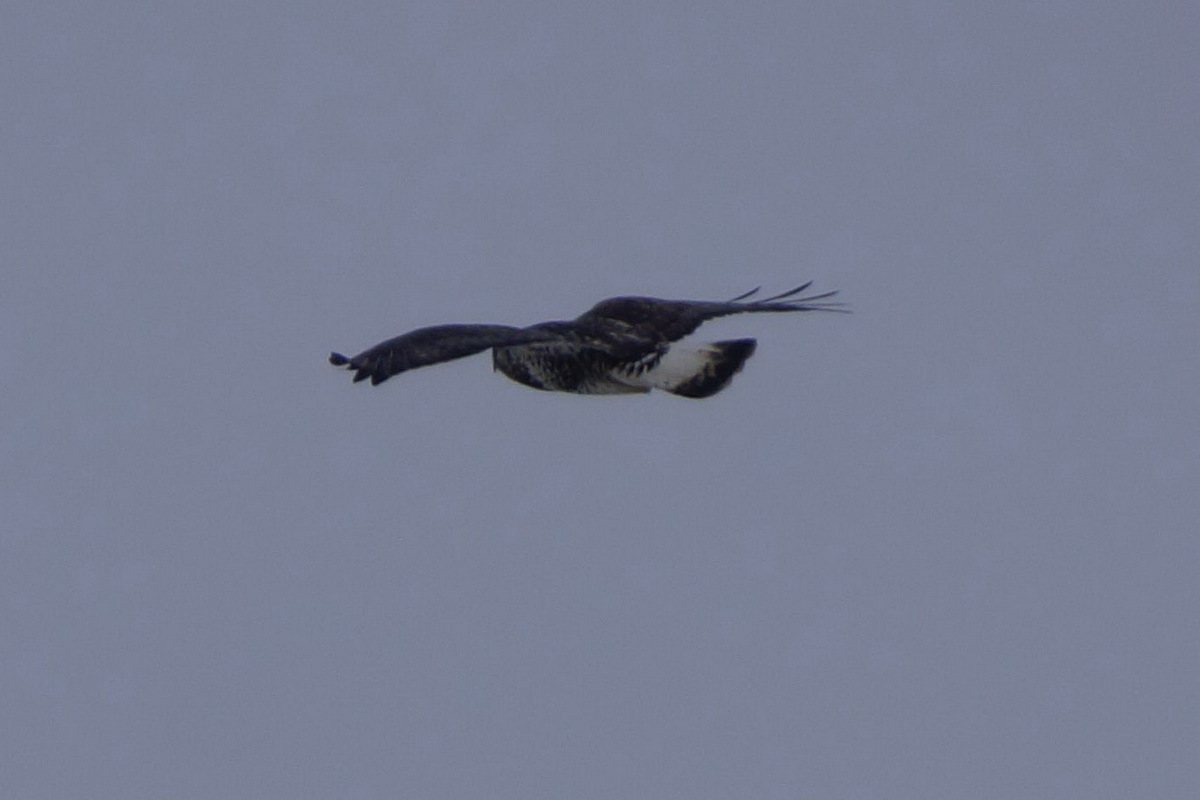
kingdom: Animalia
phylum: Chordata
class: Aves
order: Accipitriformes
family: Accipitridae
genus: Buteo
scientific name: Buteo lagopus
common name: Rough-legged buzzard
